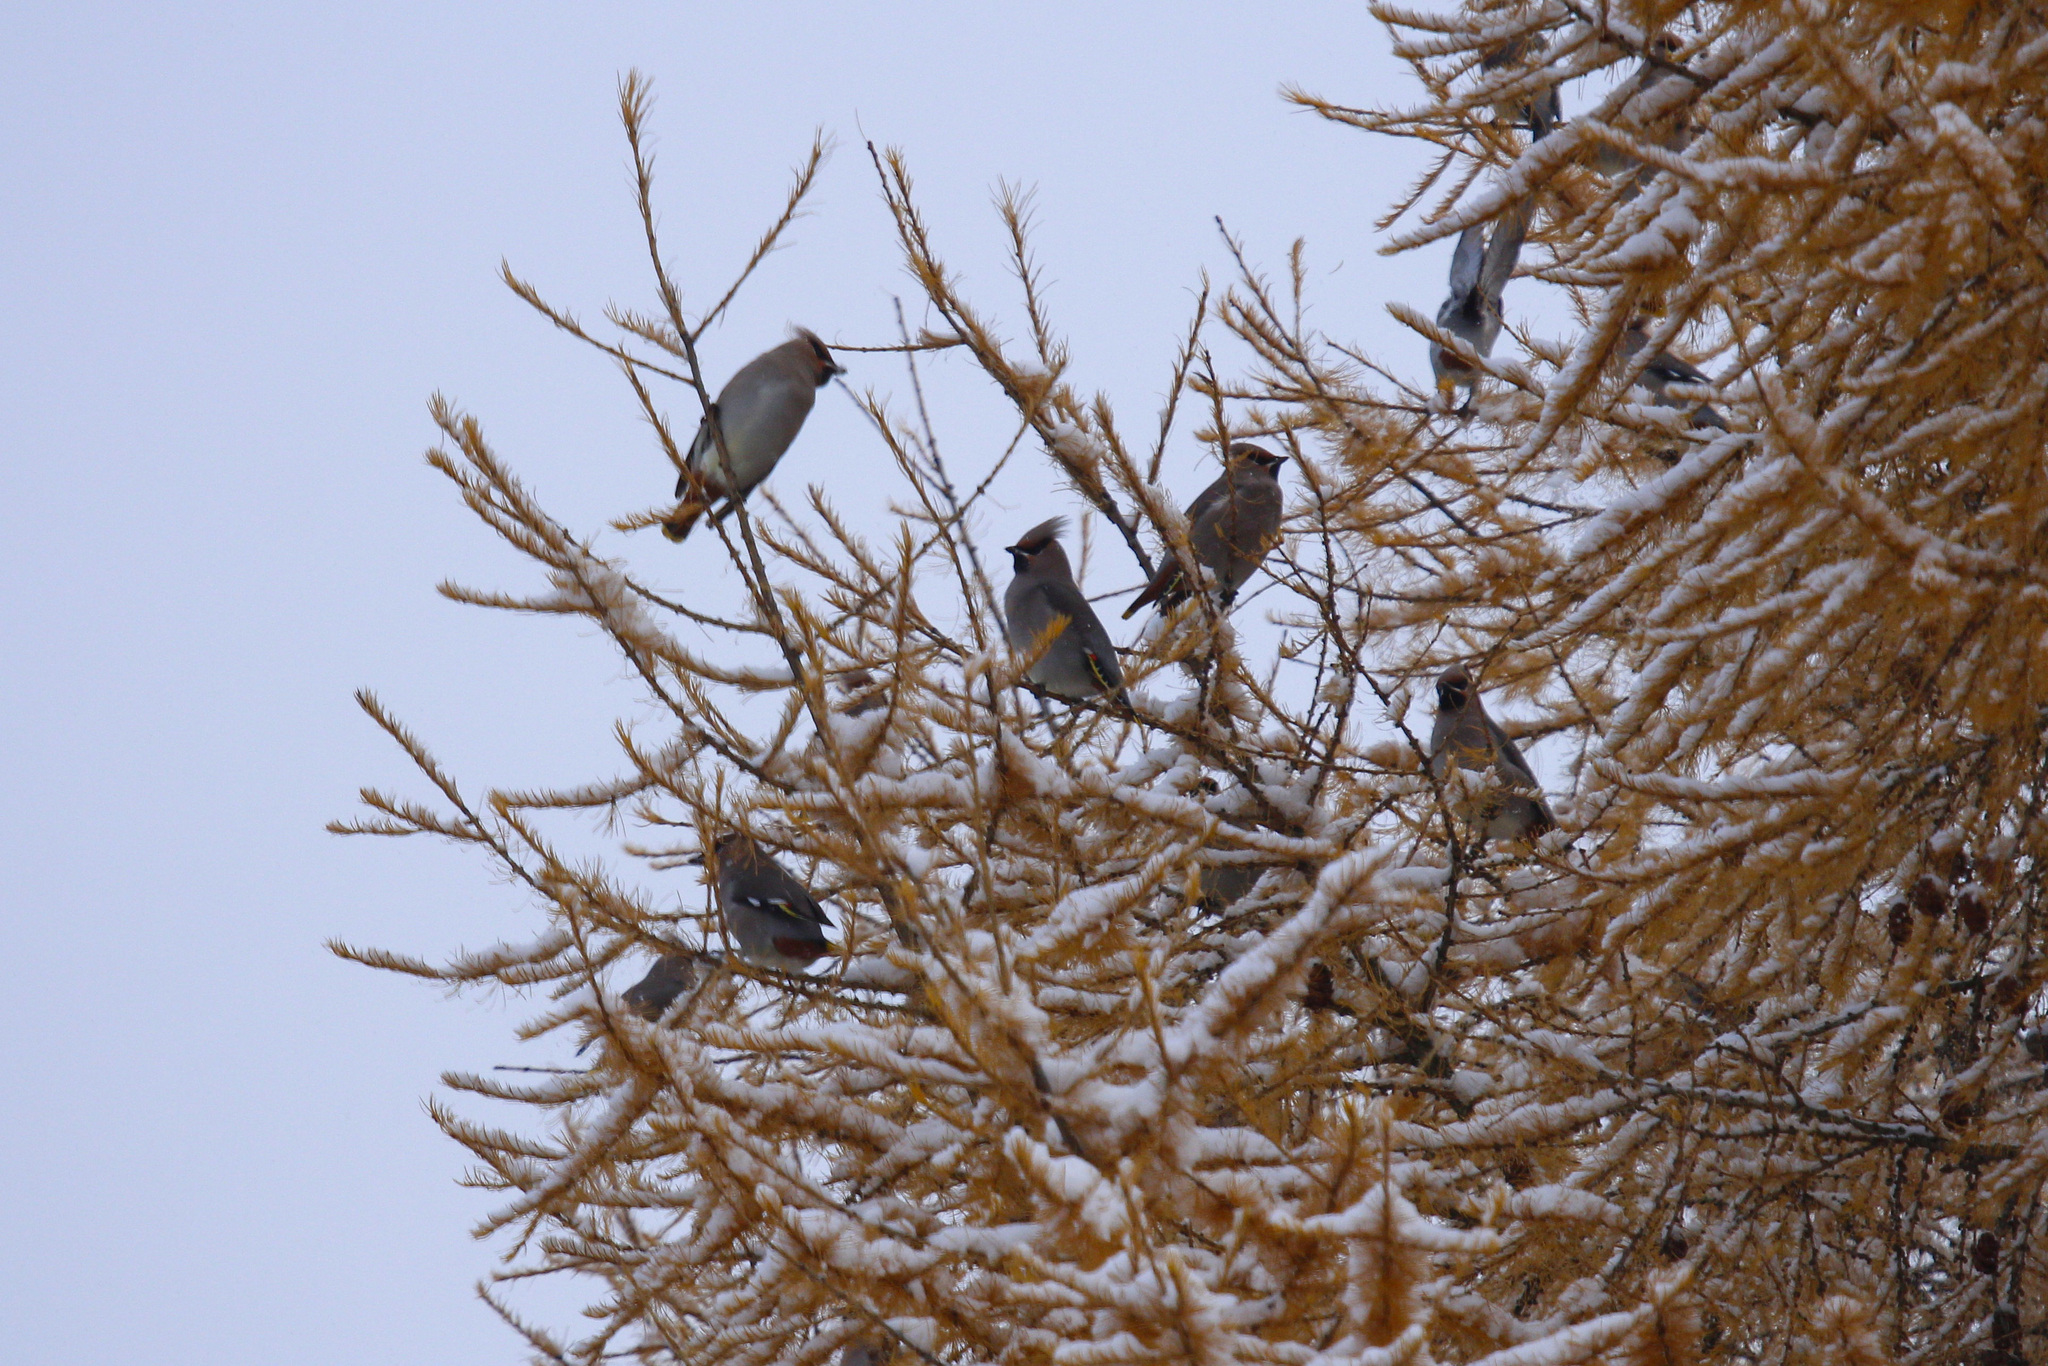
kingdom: Animalia
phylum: Chordata
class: Aves
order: Passeriformes
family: Bombycillidae
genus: Bombycilla
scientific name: Bombycilla garrulus
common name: Bohemian waxwing
